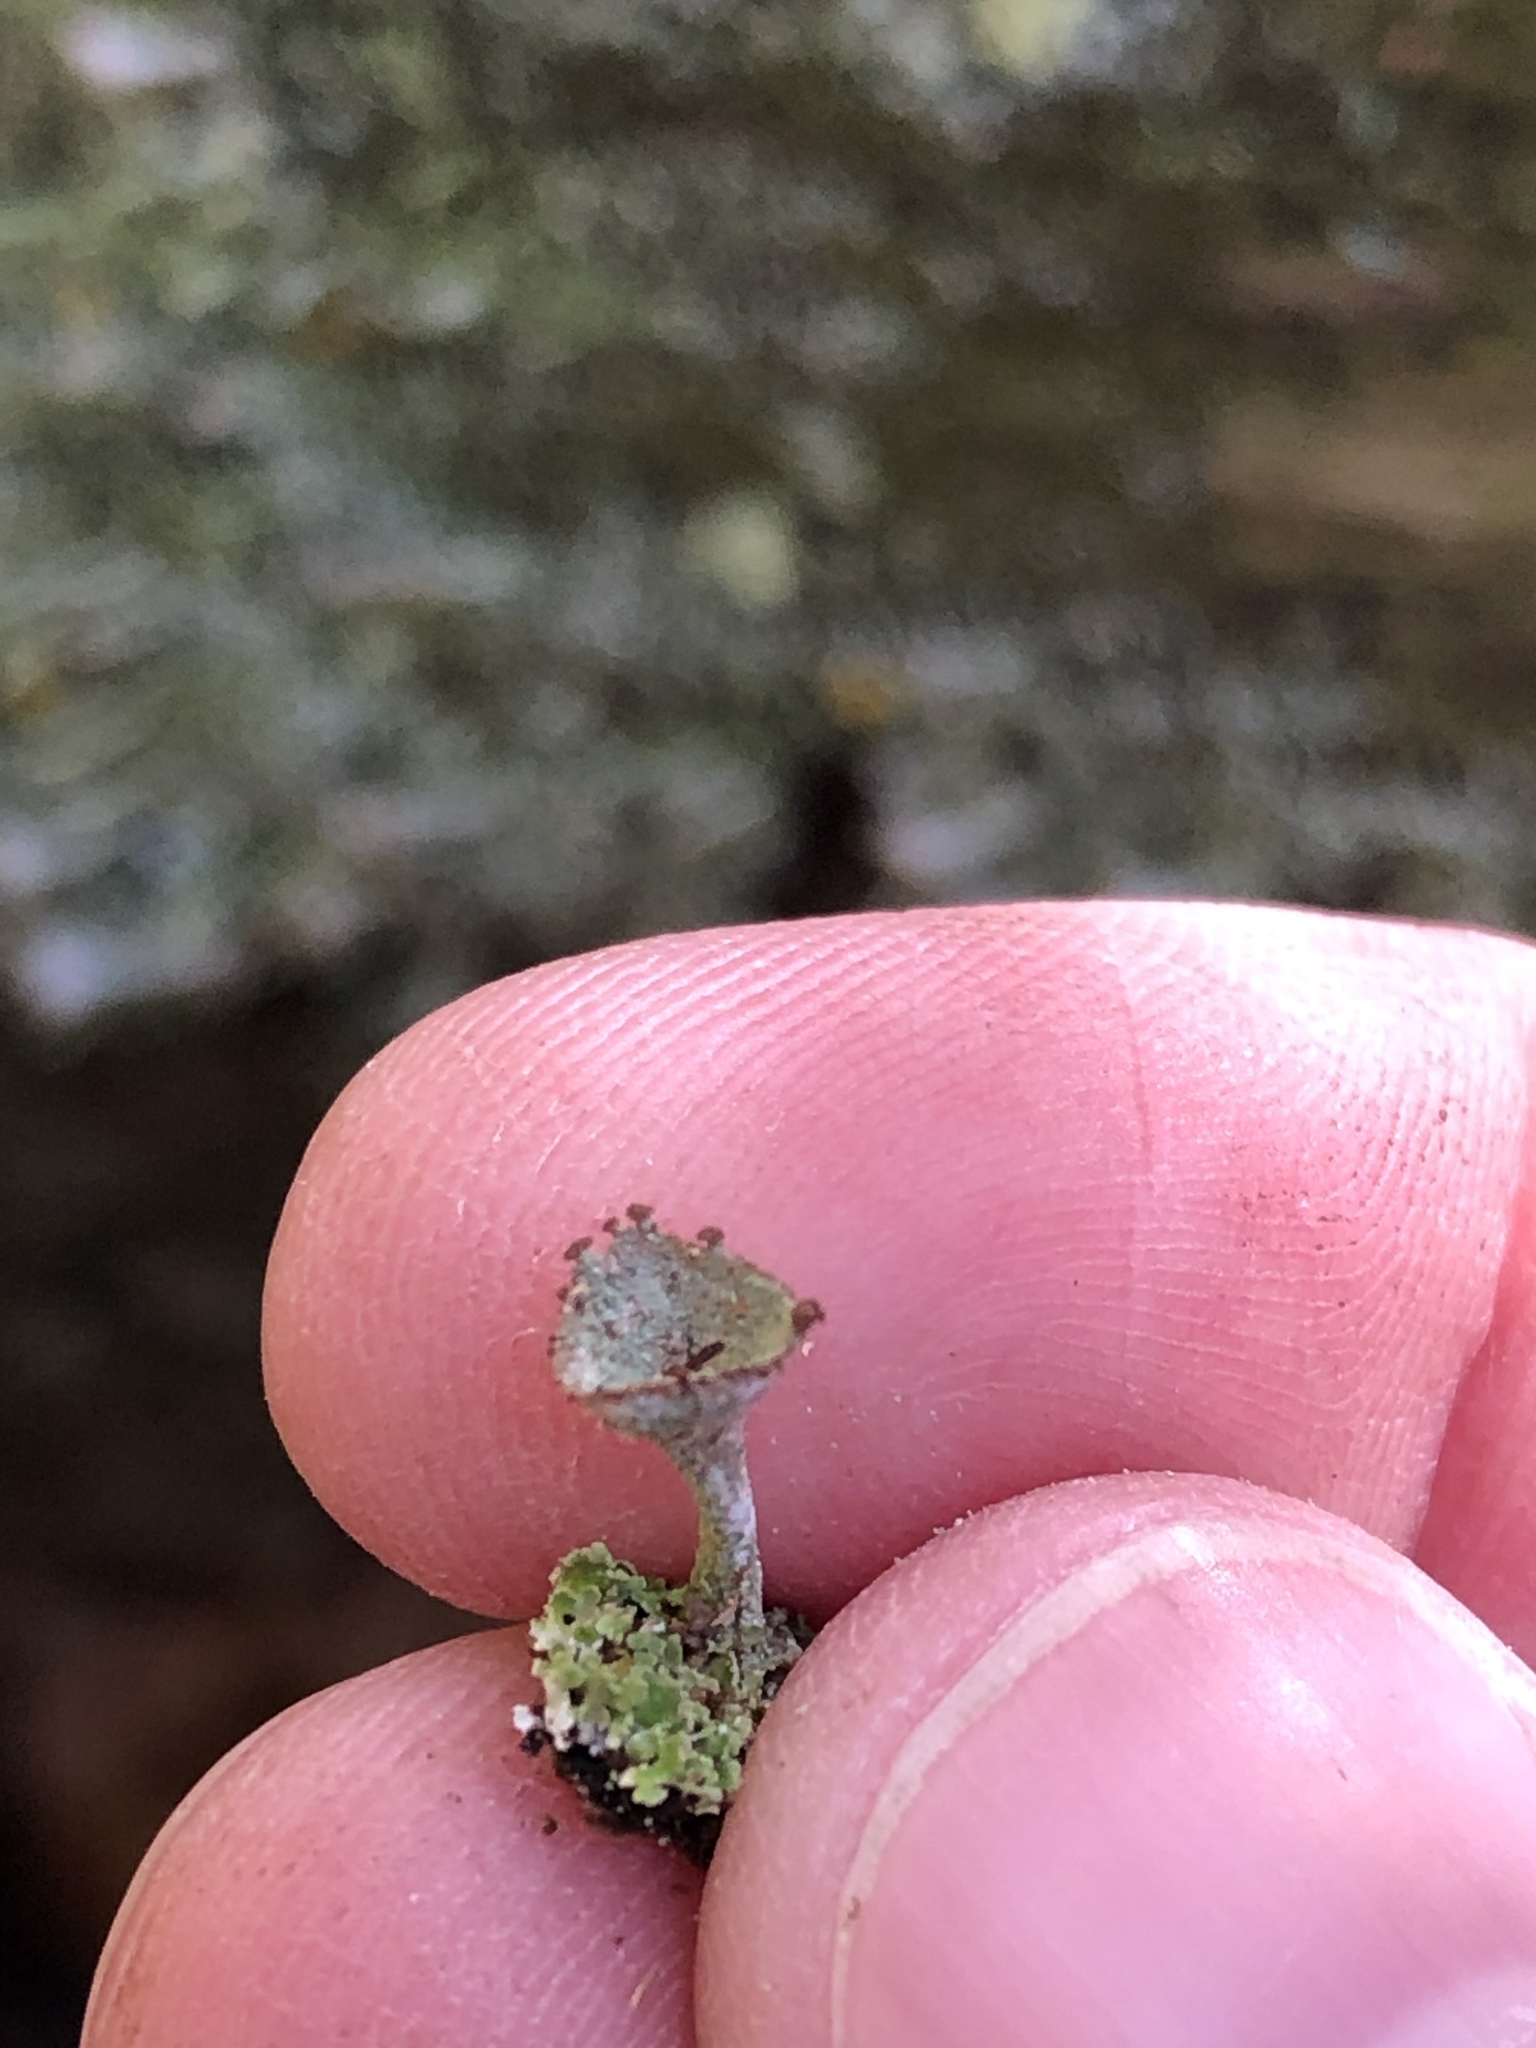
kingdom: Fungi
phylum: Ascomycota
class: Lecanoromycetes
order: Lecanorales
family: Cladoniaceae
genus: Cladonia
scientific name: Cladonia chlorophaea
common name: Mealy pixie cup
